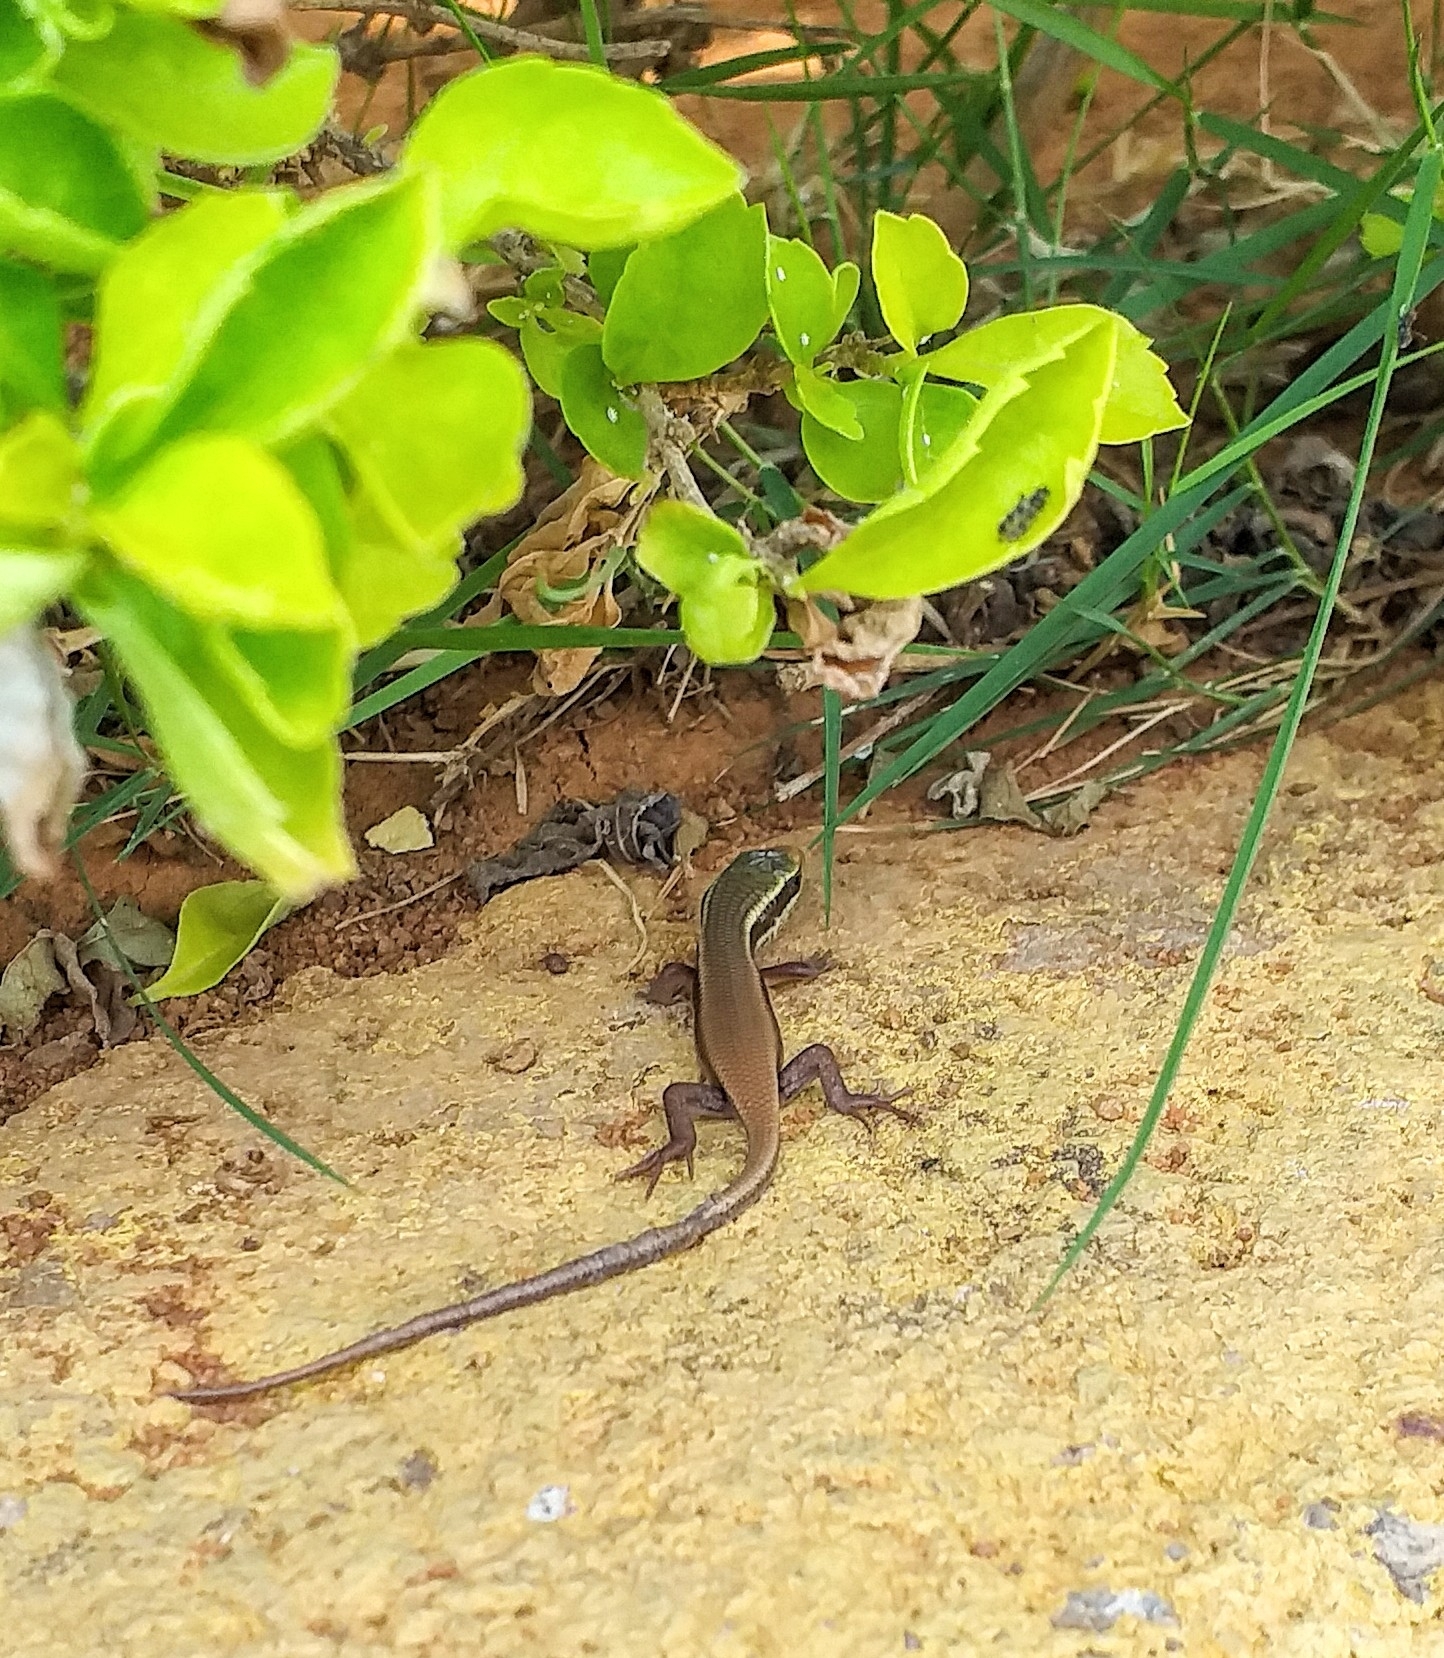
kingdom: Animalia
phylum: Chordata
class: Squamata
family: Scincidae
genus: Eutropis
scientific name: Eutropis carinata
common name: Keeled indian mabuya
